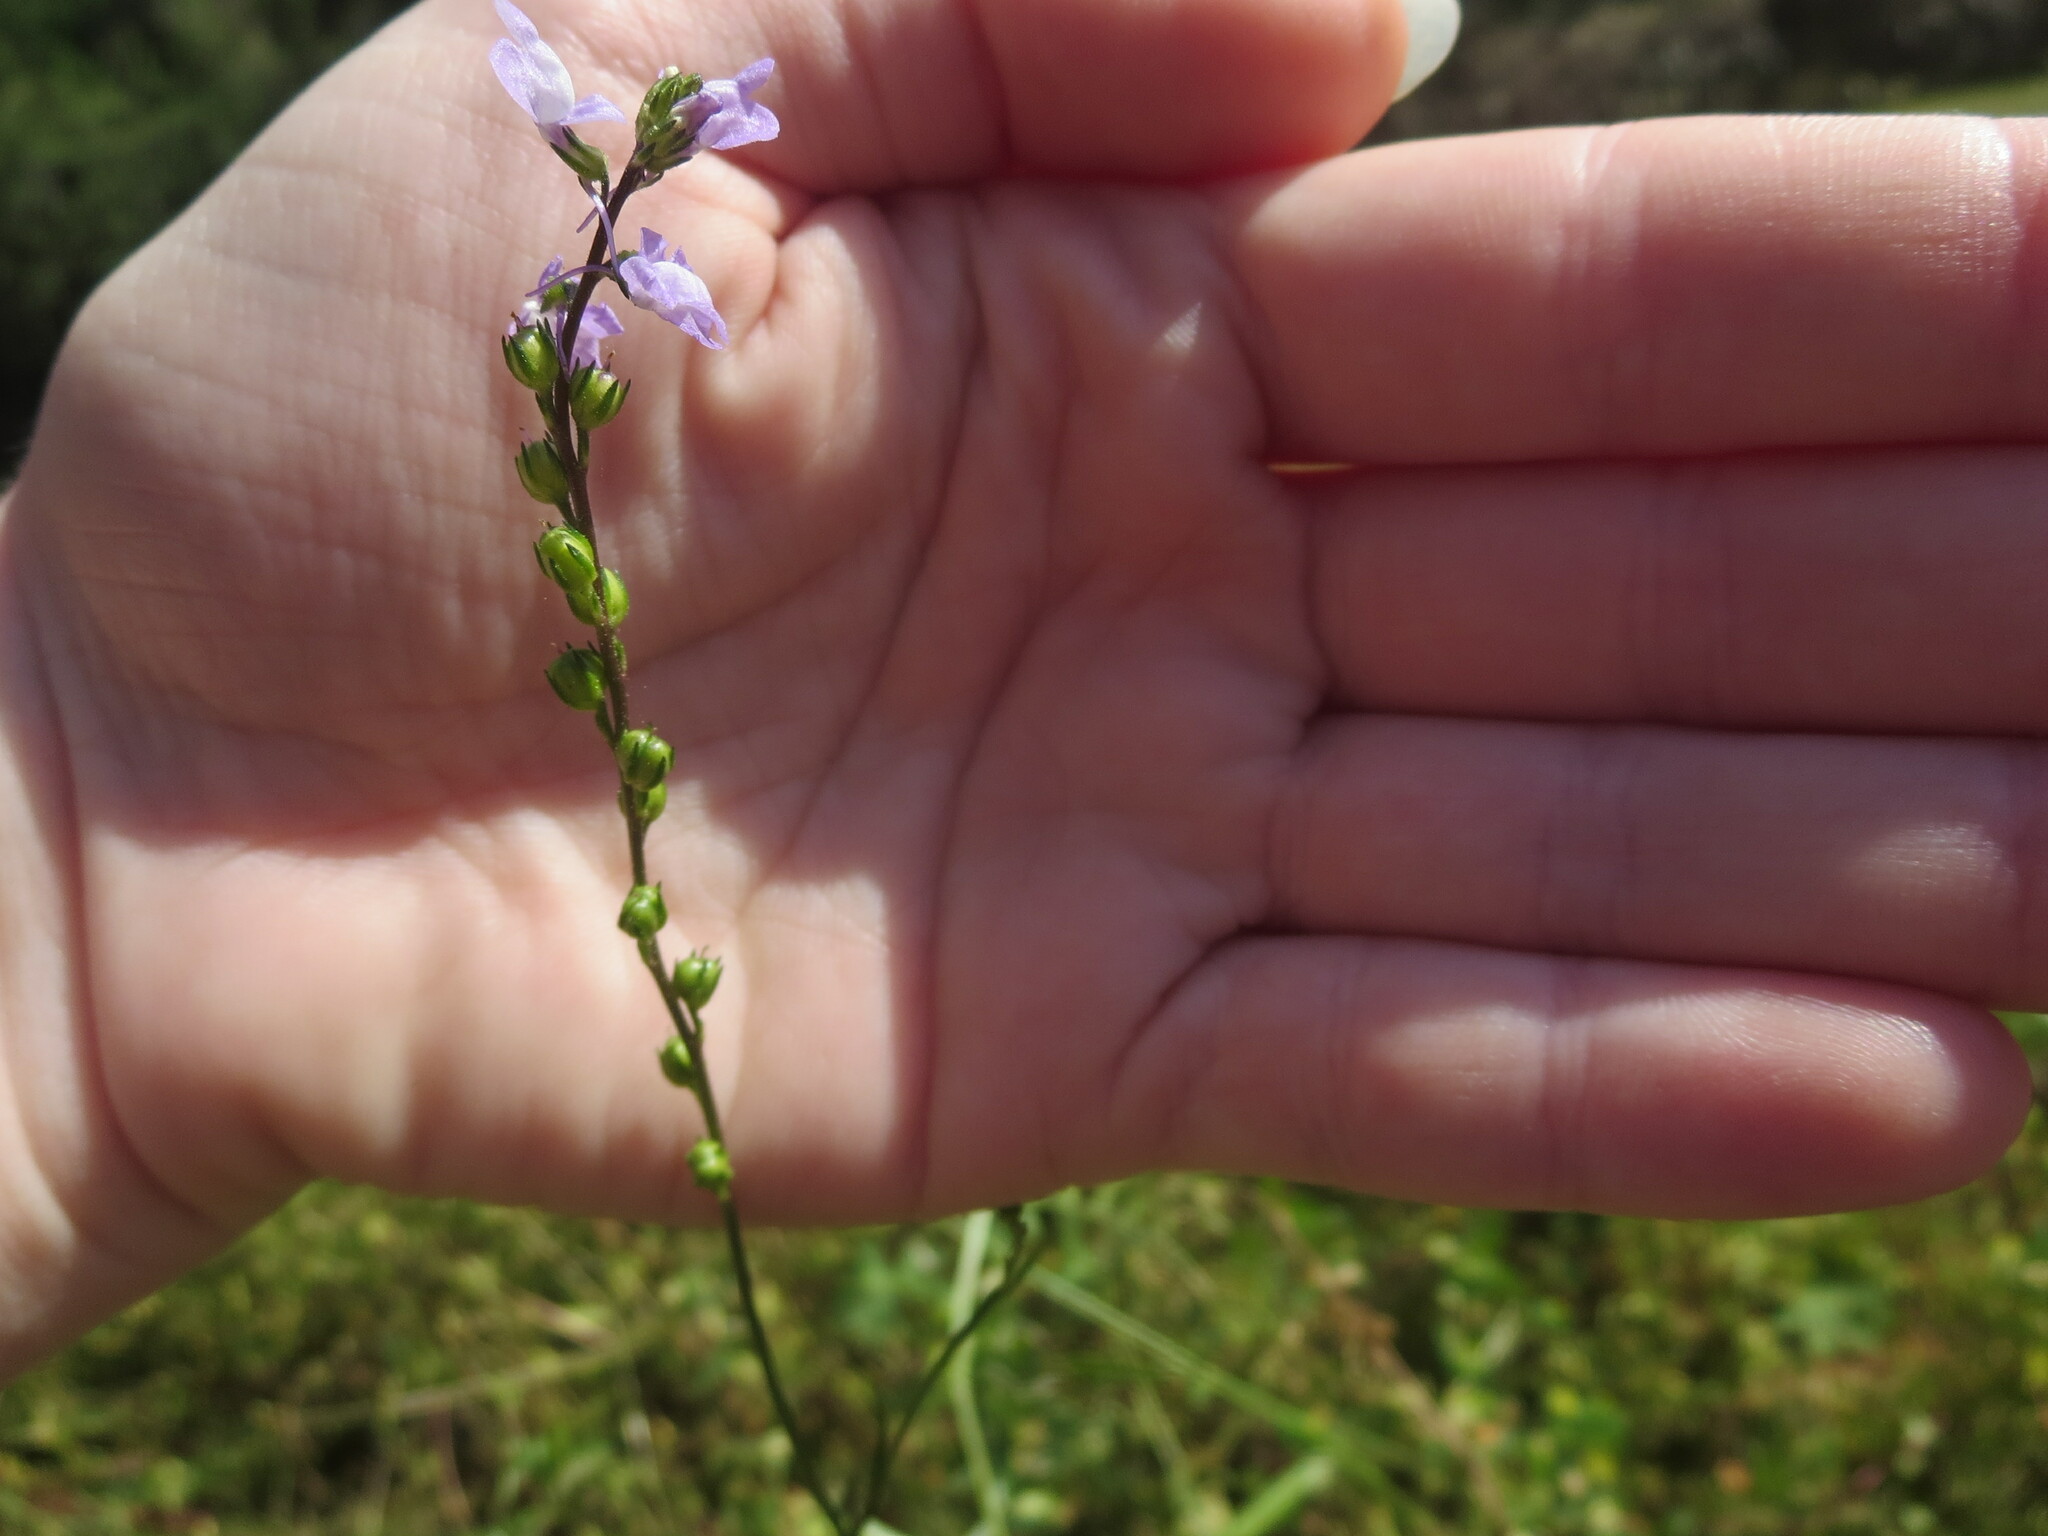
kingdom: Plantae
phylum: Tracheophyta
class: Magnoliopsida
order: Lamiales
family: Plantaginaceae
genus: Nuttallanthus
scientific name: Nuttallanthus canadensis
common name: Blue toadflax
